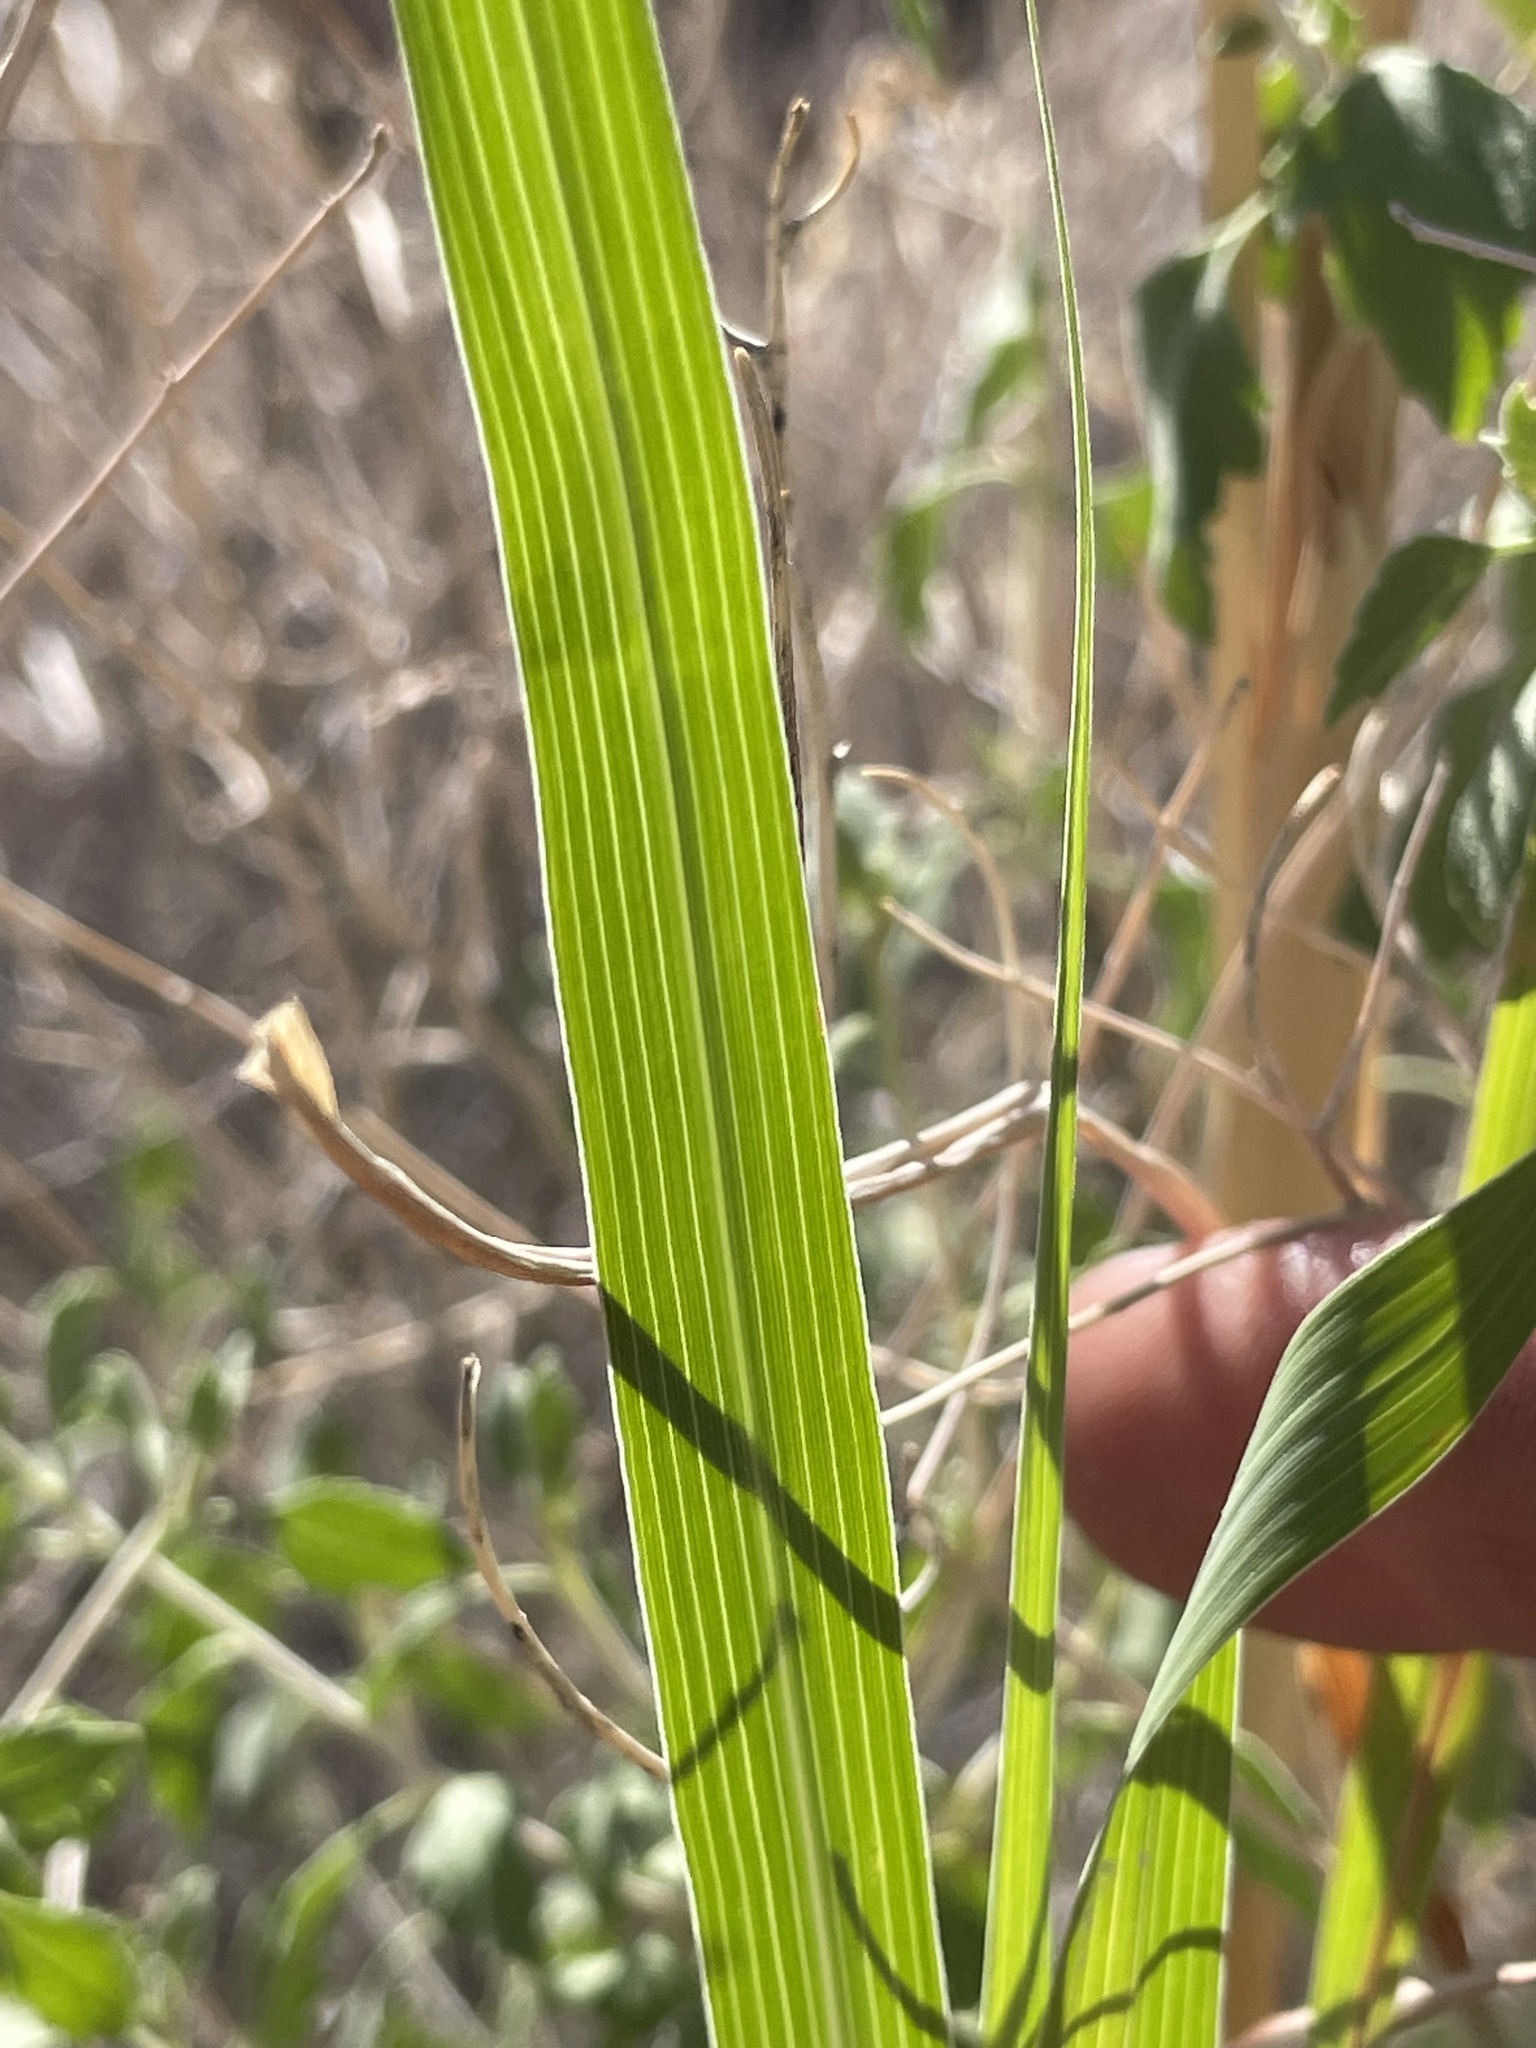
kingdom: Plantae
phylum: Tracheophyta
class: Liliopsida
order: Poales
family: Poaceae
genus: Bothriochloa
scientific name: Bothriochloa barbinodis
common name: Cane bluestem
